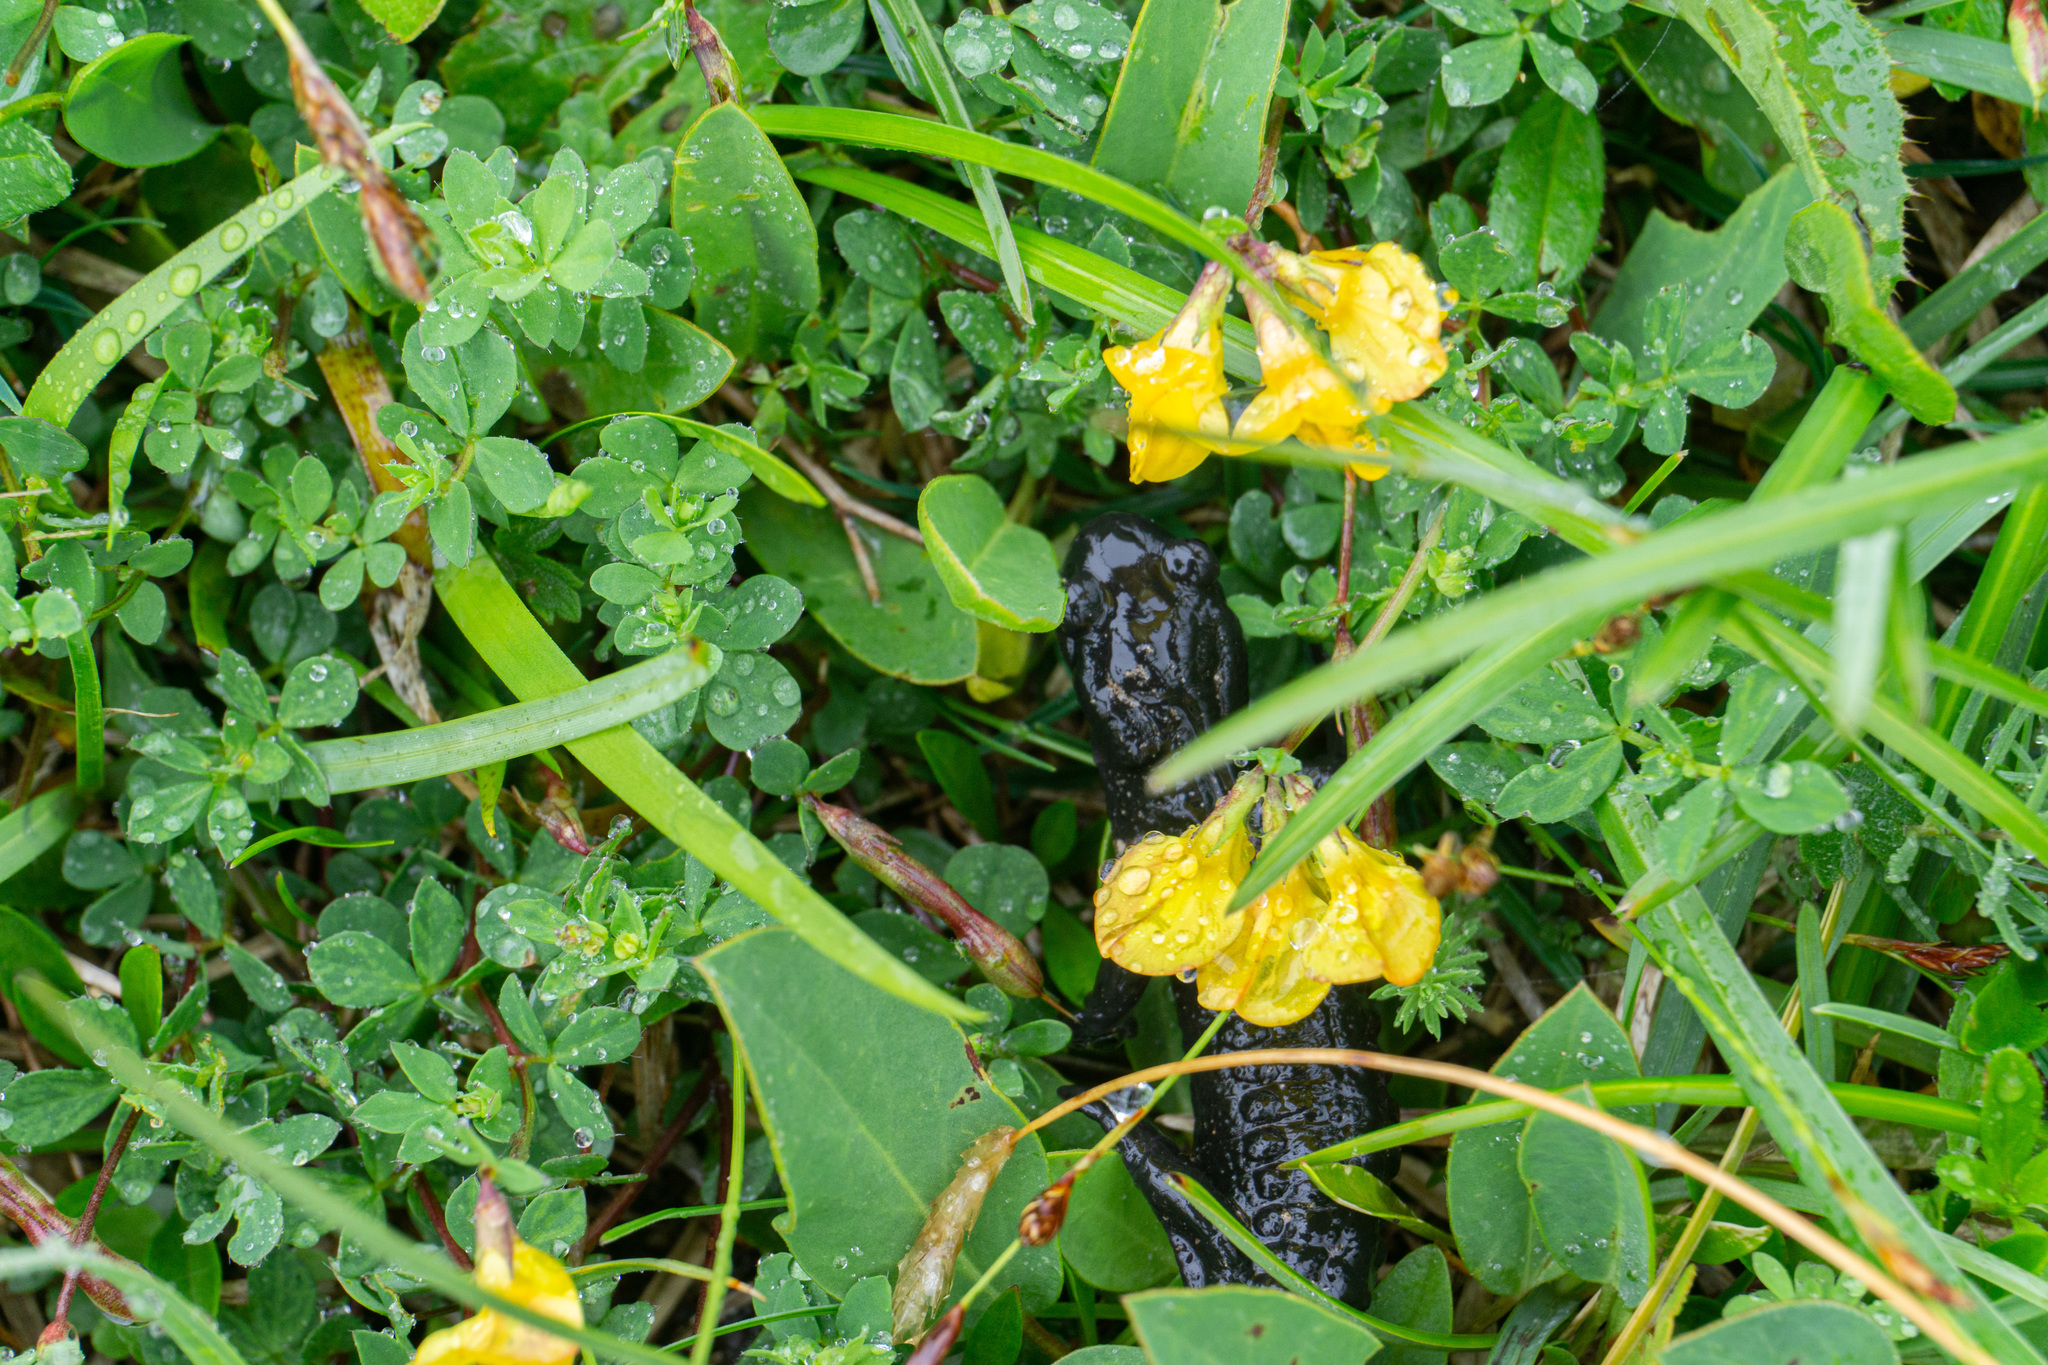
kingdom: Animalia
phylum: Chordata
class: Amphibia
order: Caudata
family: Salamandridae
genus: Salamandra
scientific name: Salamandra atra
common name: Alpine salamander
